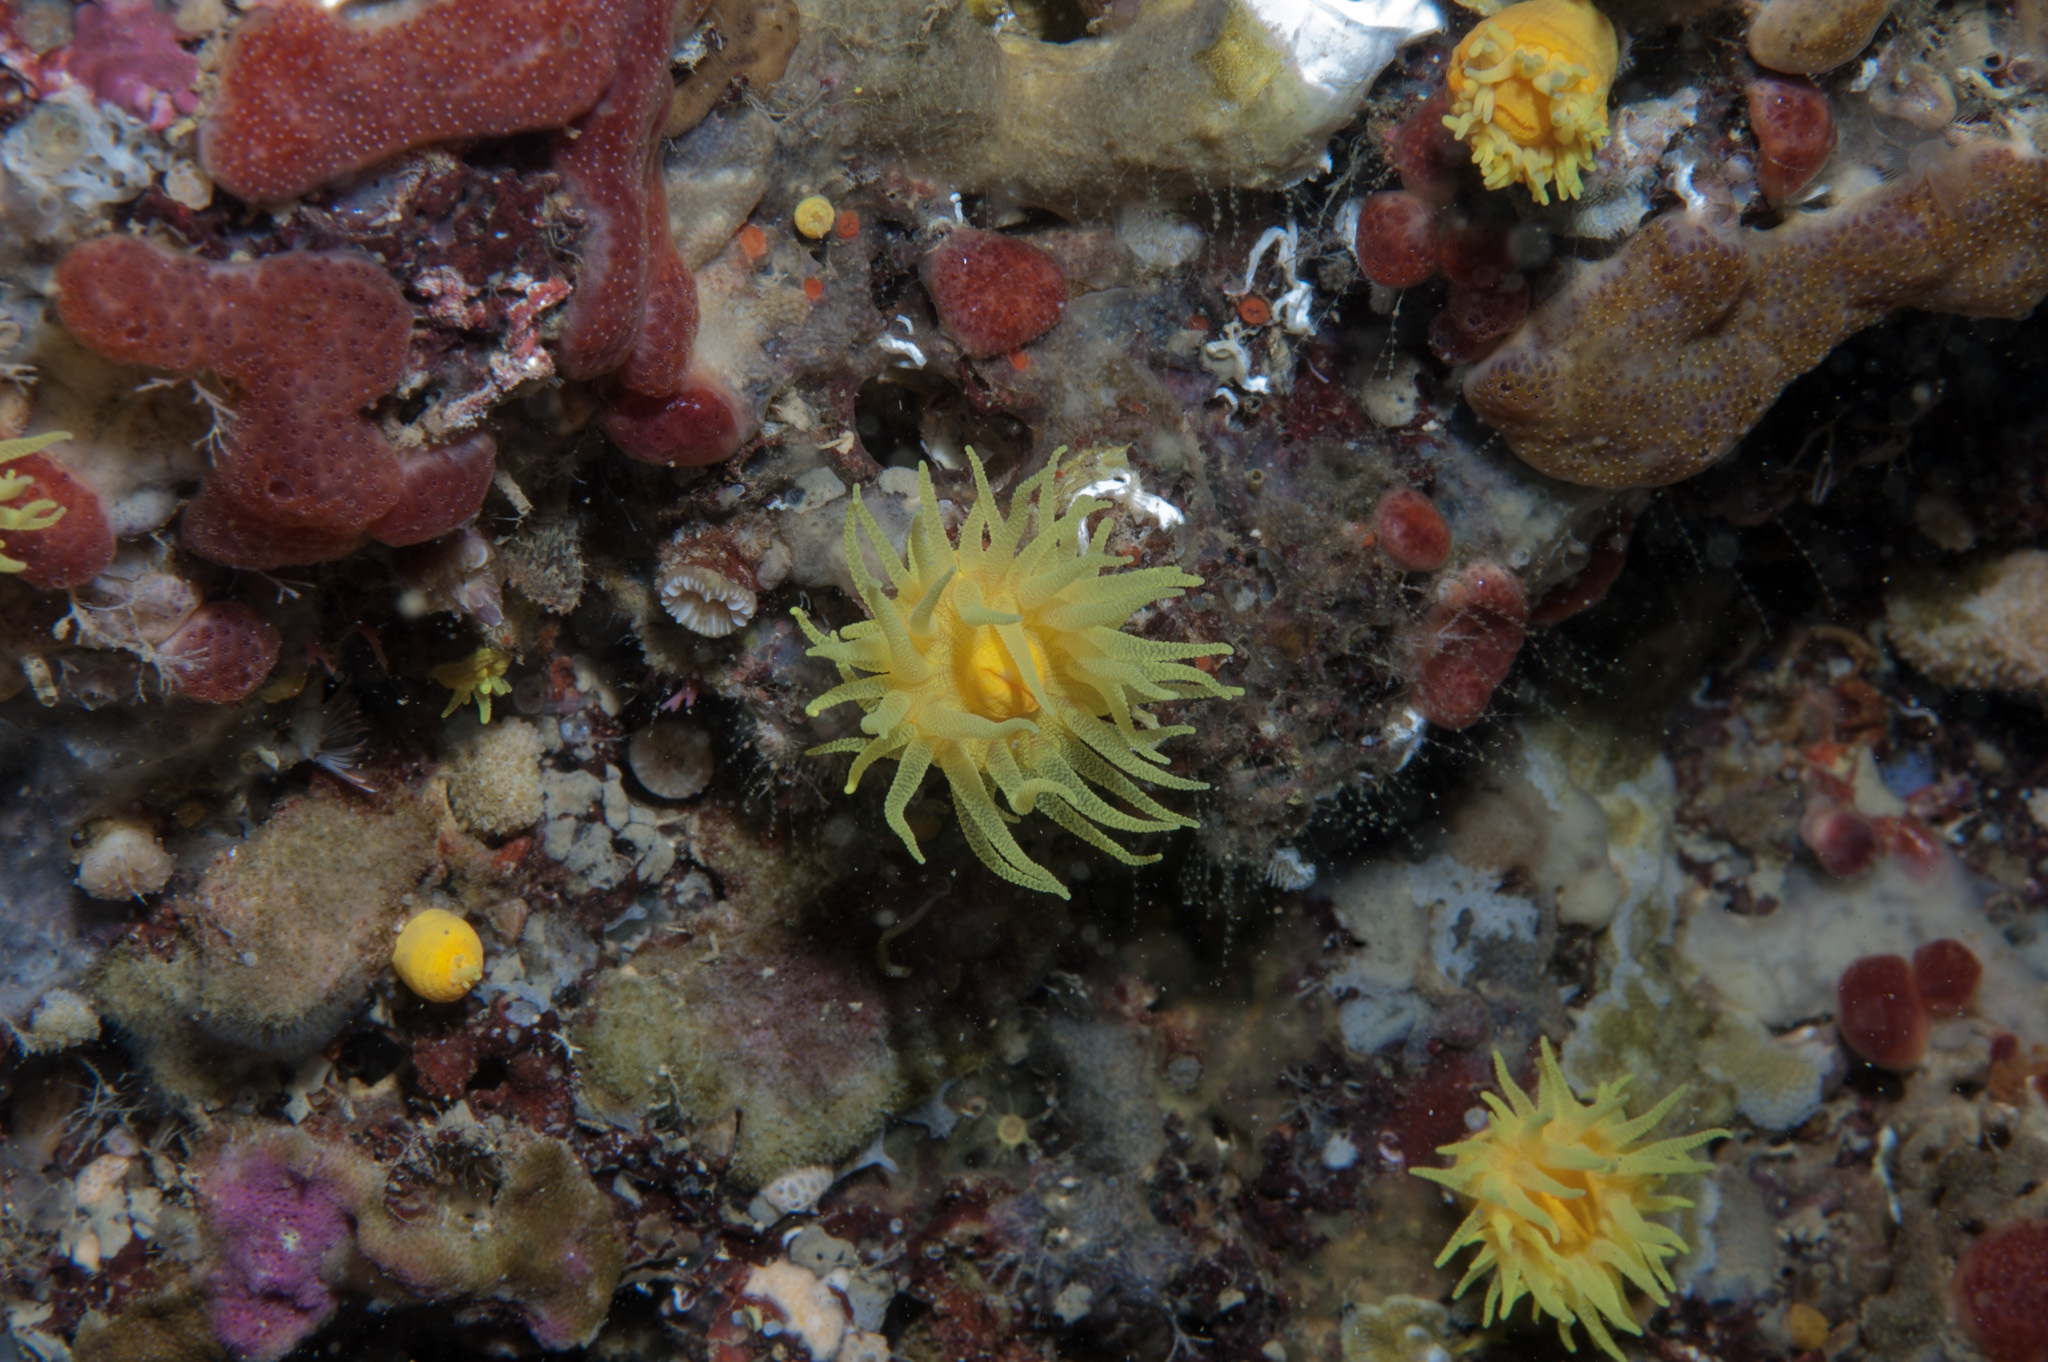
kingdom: Animalia
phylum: Cnidaria
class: Anthozoa
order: Scleractinia
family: Dendrophylliidae
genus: Leptopsammia
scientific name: Leptopsammia pruvoti
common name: Sunset cup coral
